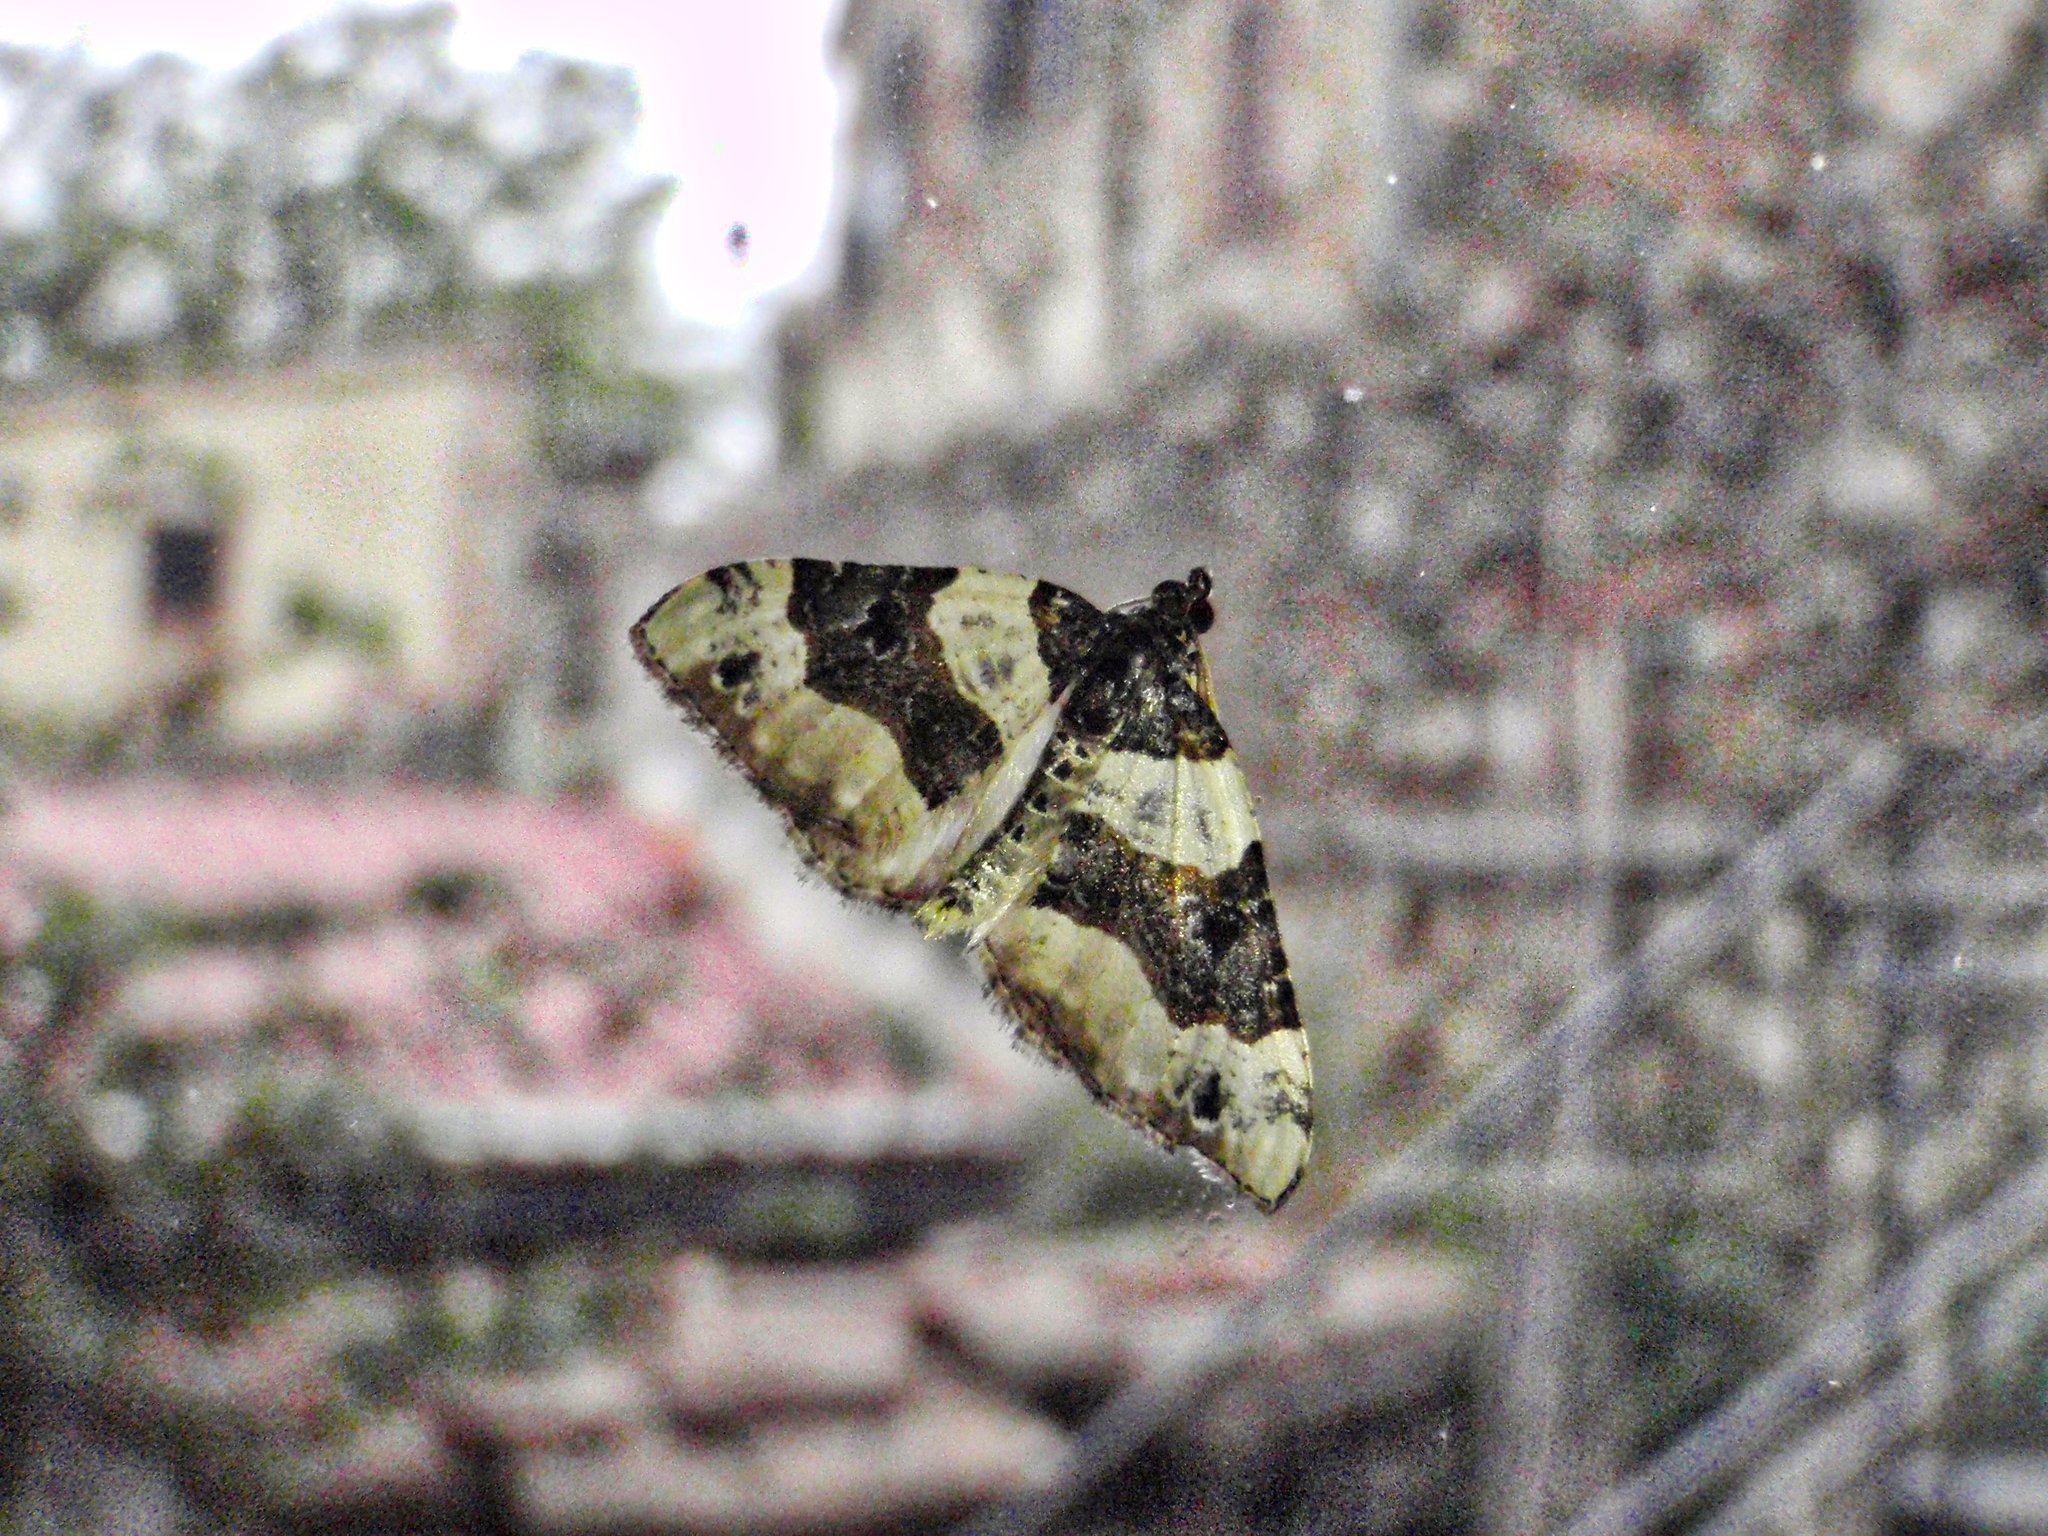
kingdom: Animalia
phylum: Arthropoda
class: Insecta
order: Lepidoptera
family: Geometridae
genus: Cosmorhoe
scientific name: Cosmorhoe ocellata
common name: Purple bar
